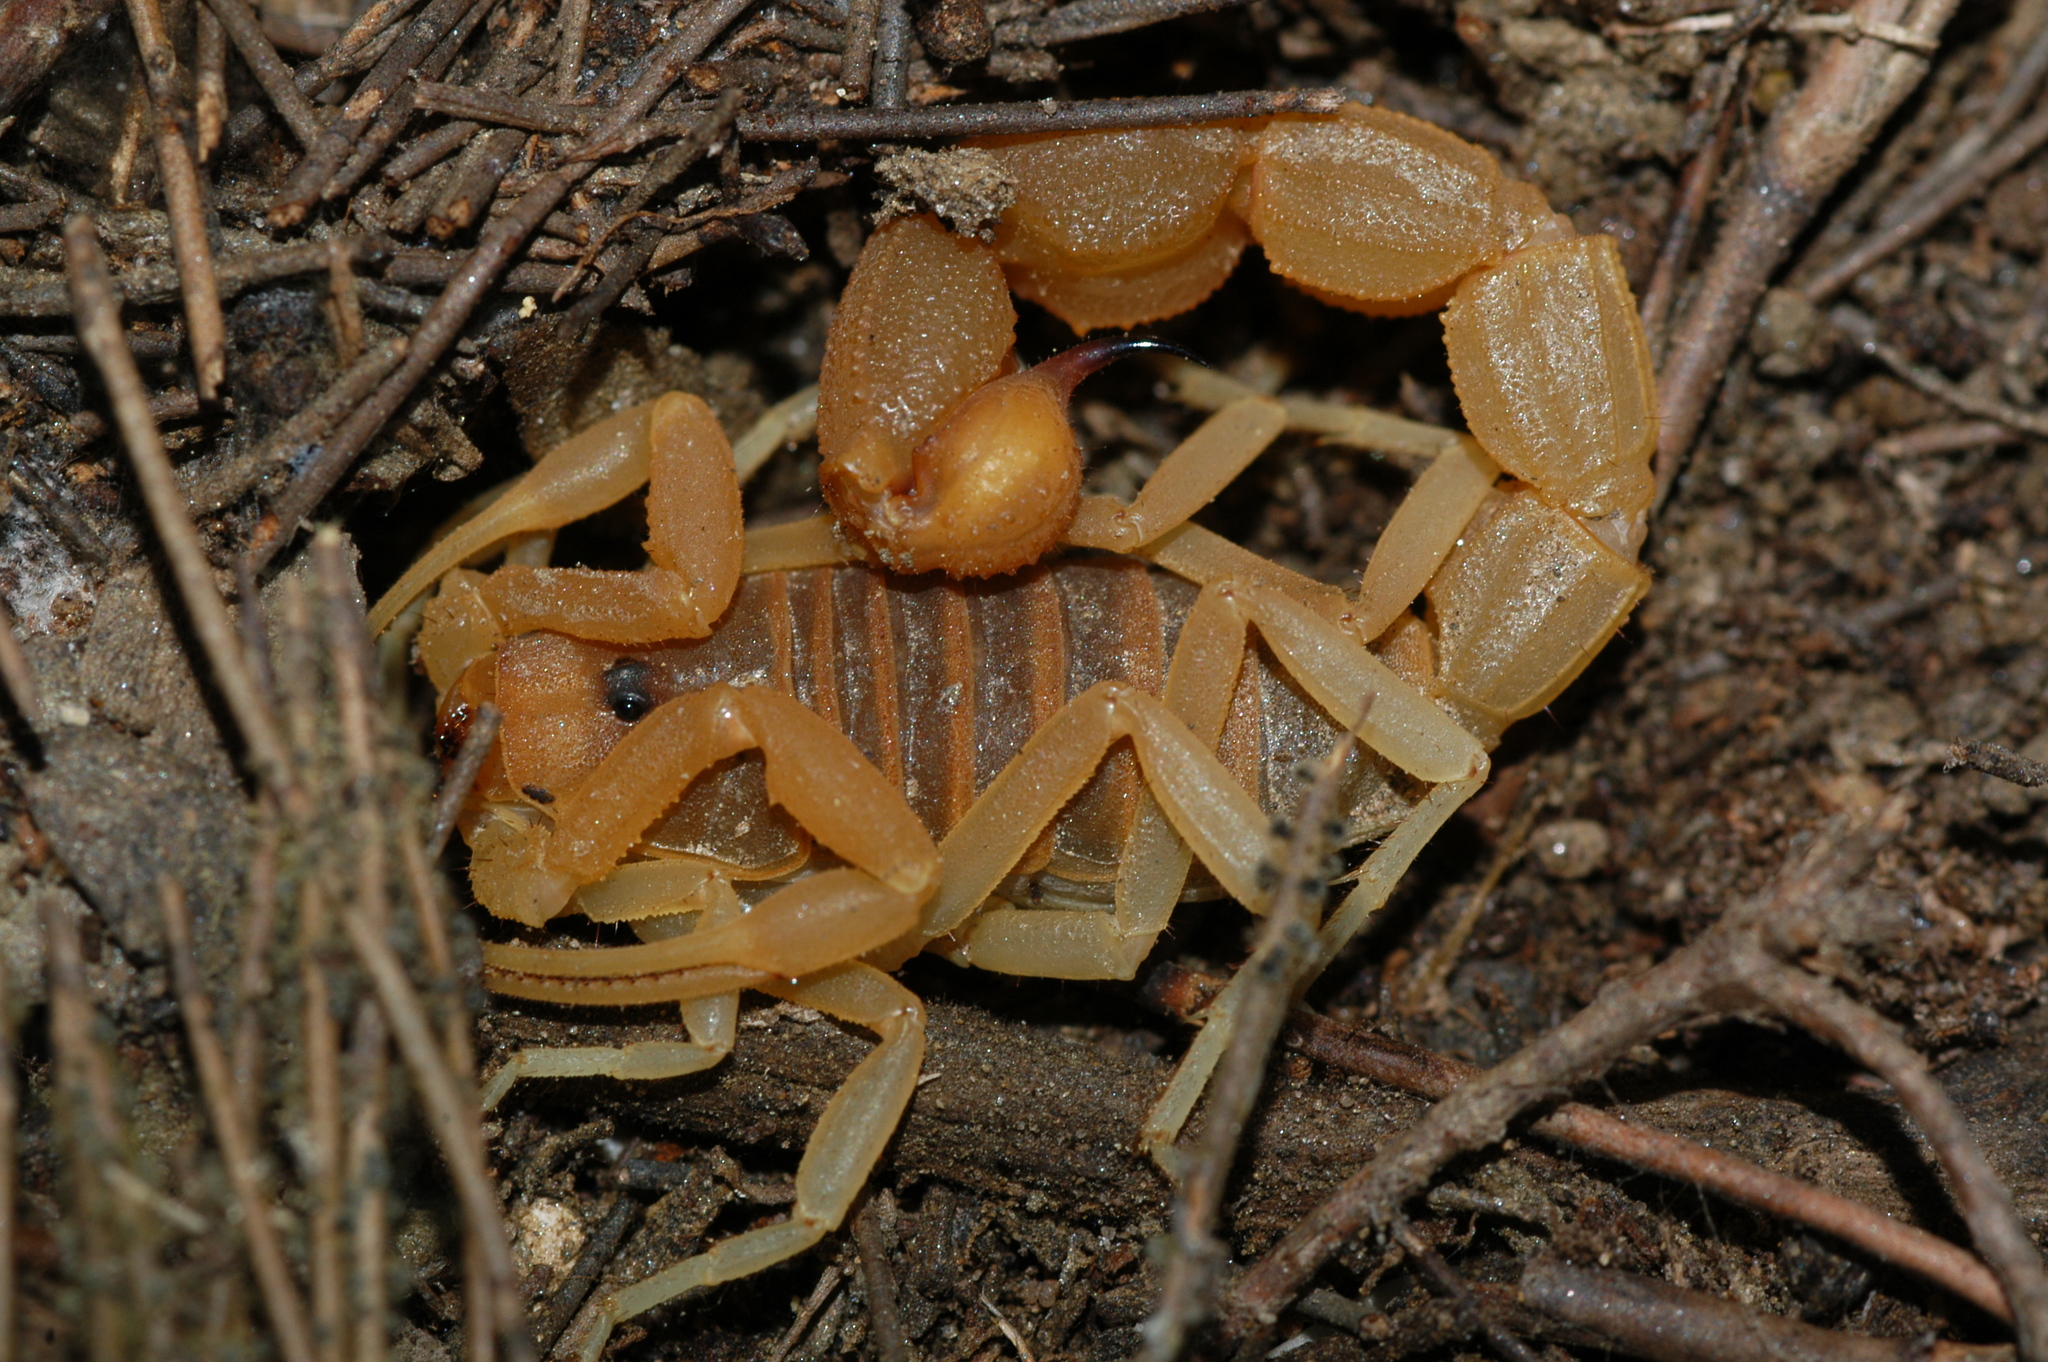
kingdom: Animalia
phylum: Arthropoda
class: Arachnida
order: Scorpiones
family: Buthidae
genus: Parabuthus
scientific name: Parabuthus planicauda
